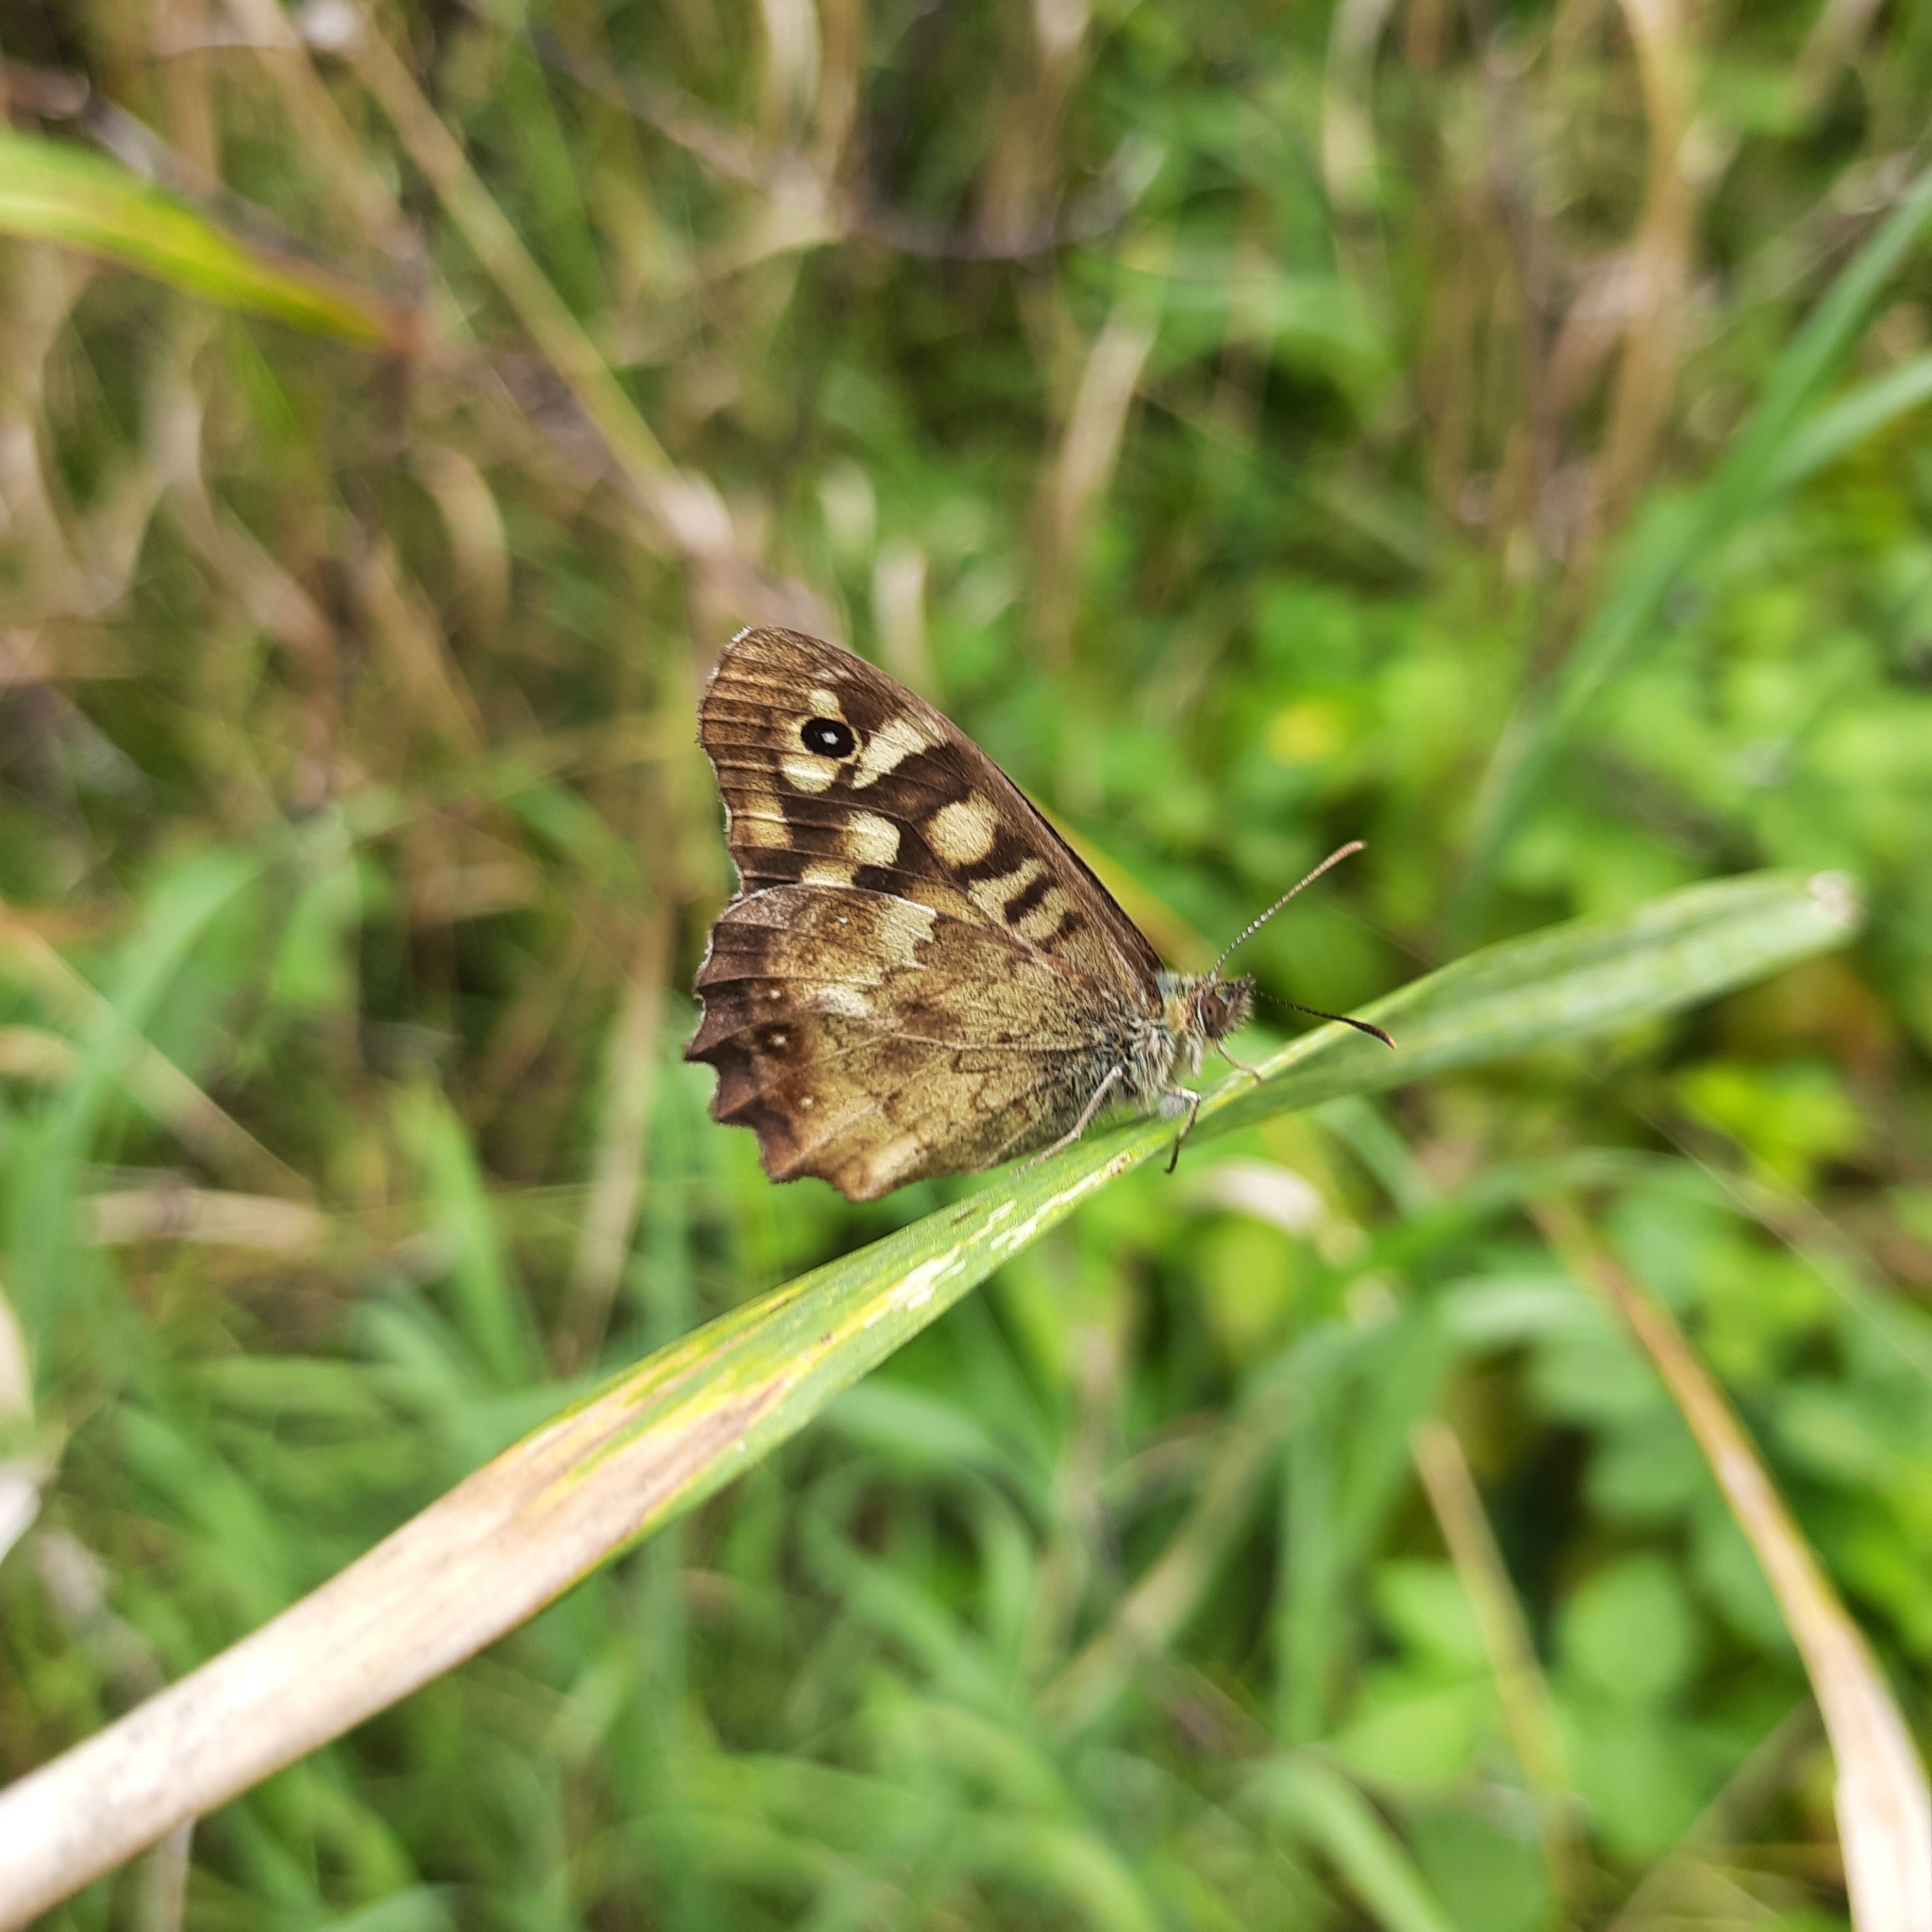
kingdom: Animalia
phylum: Arthropoda
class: Insecta
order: Lepidoptera
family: Nymphalidae
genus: Pararge
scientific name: Pararge aegeria
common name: Speckled wood
